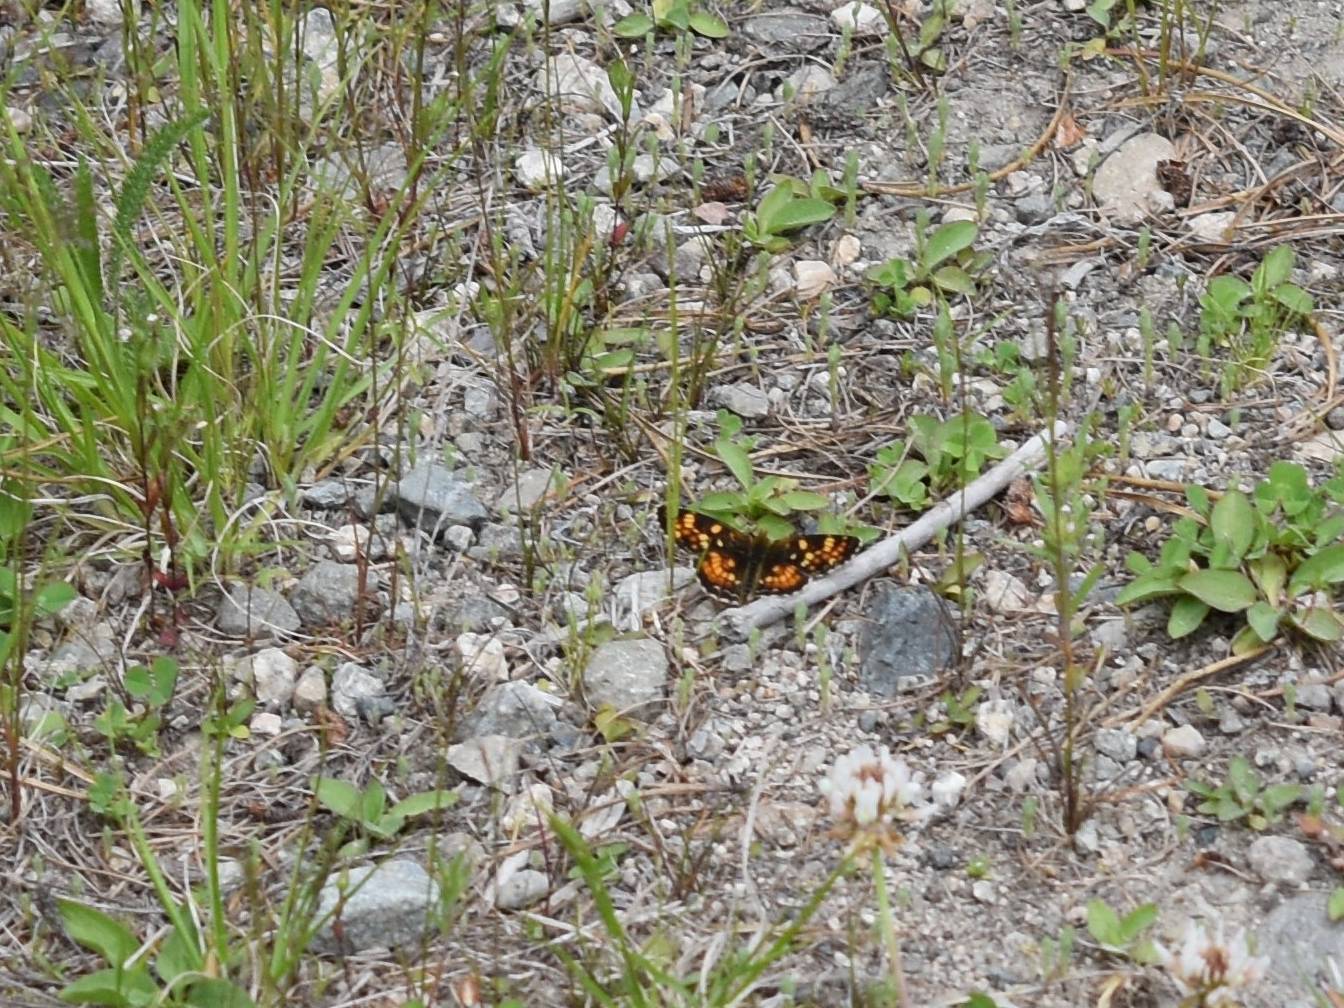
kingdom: Animalia
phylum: Arthropoda
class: Insecta
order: Lepidoptera
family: Nymphalidae
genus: Phyciodes
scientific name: Phyciodes tharos
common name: Pearl crescent
